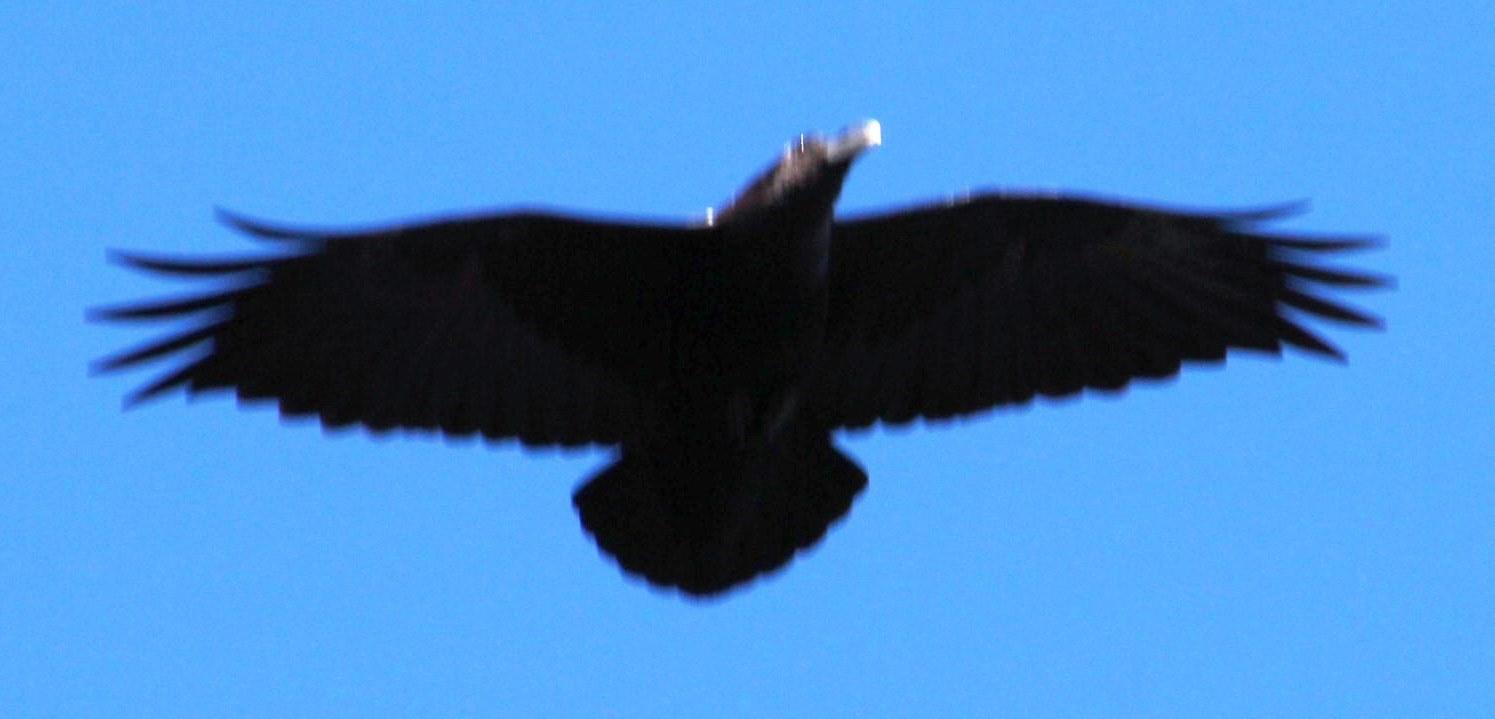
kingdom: Animalia
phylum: Chordata
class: Aves
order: Passeriformes
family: Corvidae
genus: Corvus
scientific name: Corvus albicollis
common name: White-necked raven
